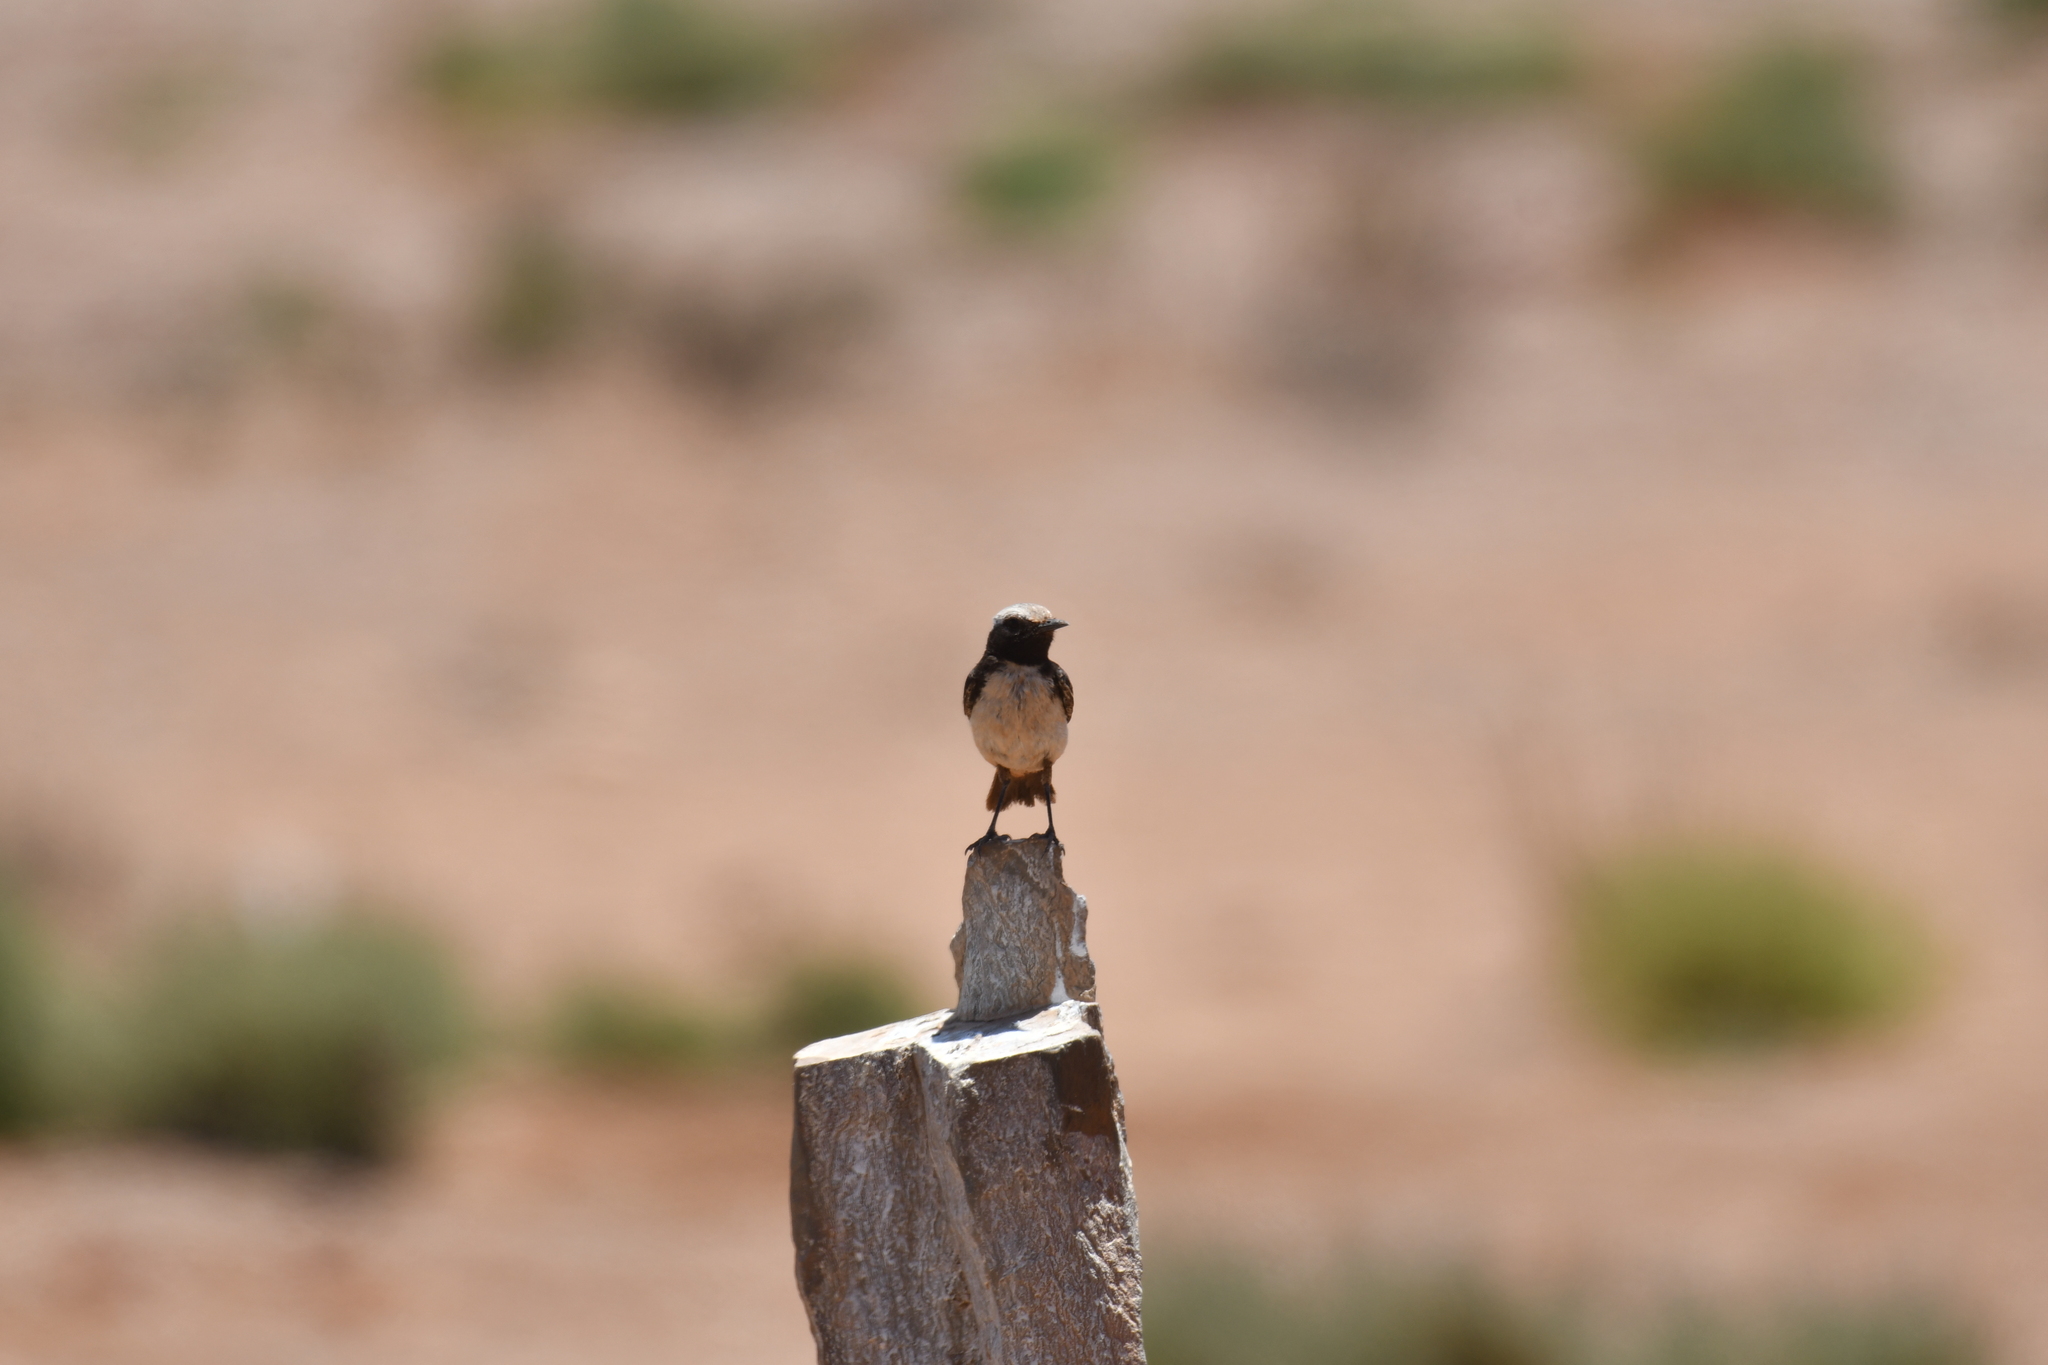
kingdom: Animalia
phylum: Chordata
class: Aves
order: Passeriformes
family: Muscicapidae
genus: Oenanthe
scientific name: Oenanthe deserti
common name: Desert wheatear
